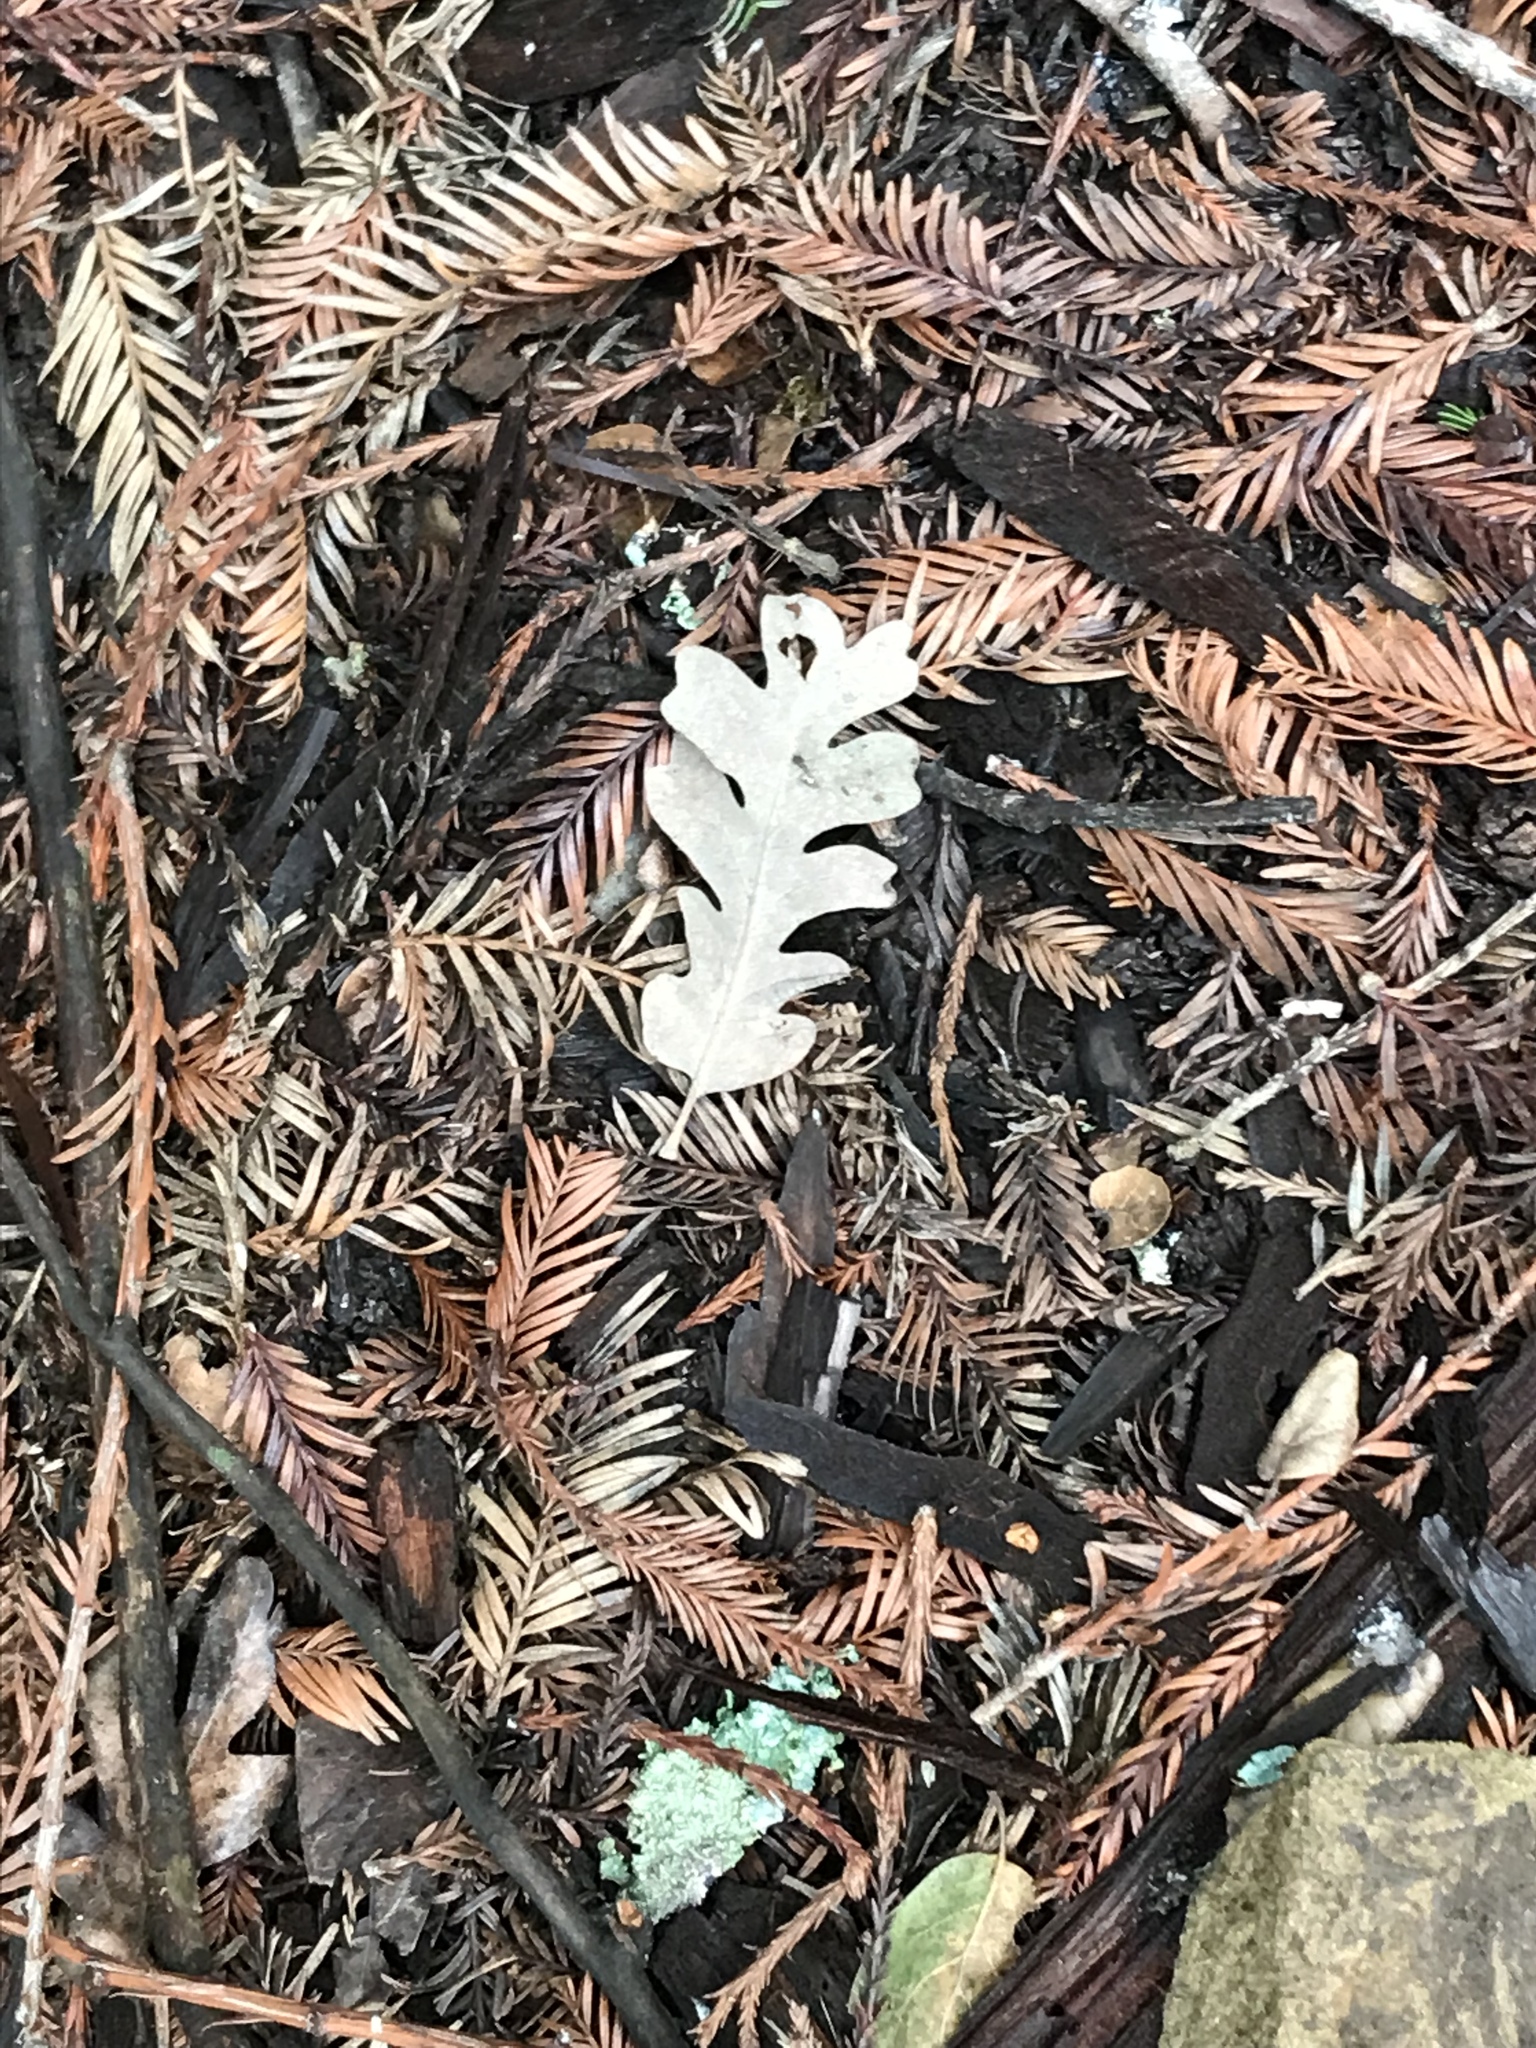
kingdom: Plantae
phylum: Tracheophyta
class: Magnoliopsida
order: Fagales
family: Fagaceae
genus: Quercus
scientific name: Quercus lobata
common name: Valley oak
